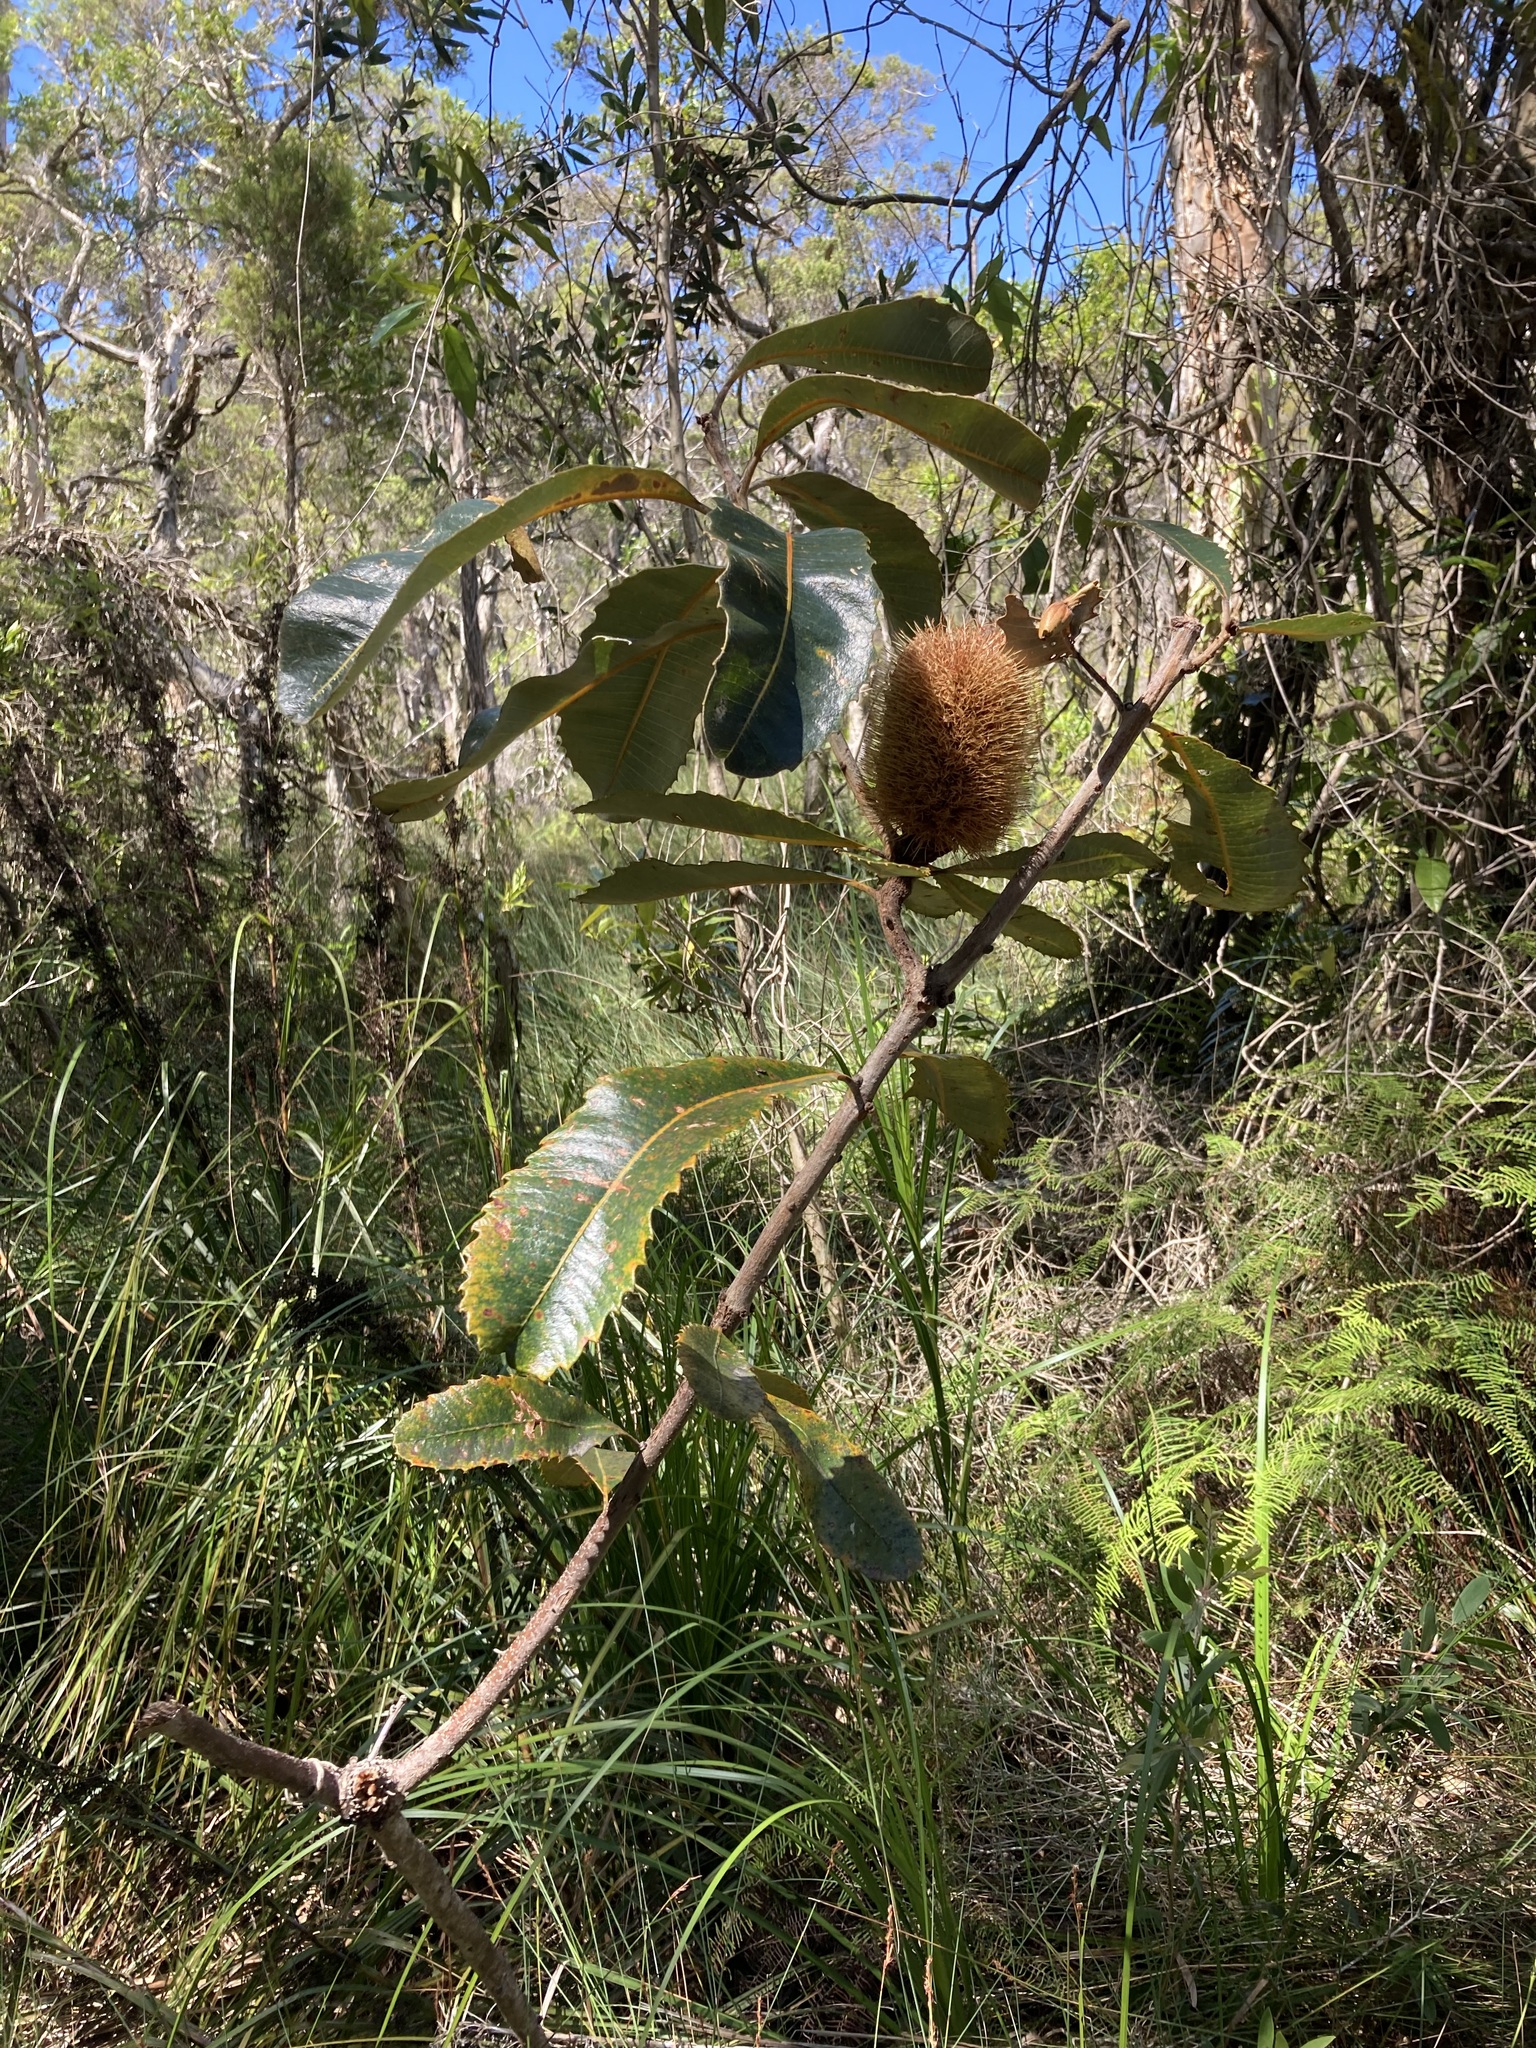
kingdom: Plantae
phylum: Tracheophyta
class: Magnoliopsida
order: Proteales
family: Proteaceae
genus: Banksia
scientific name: Banksia robur
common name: Broadleaf banksia
